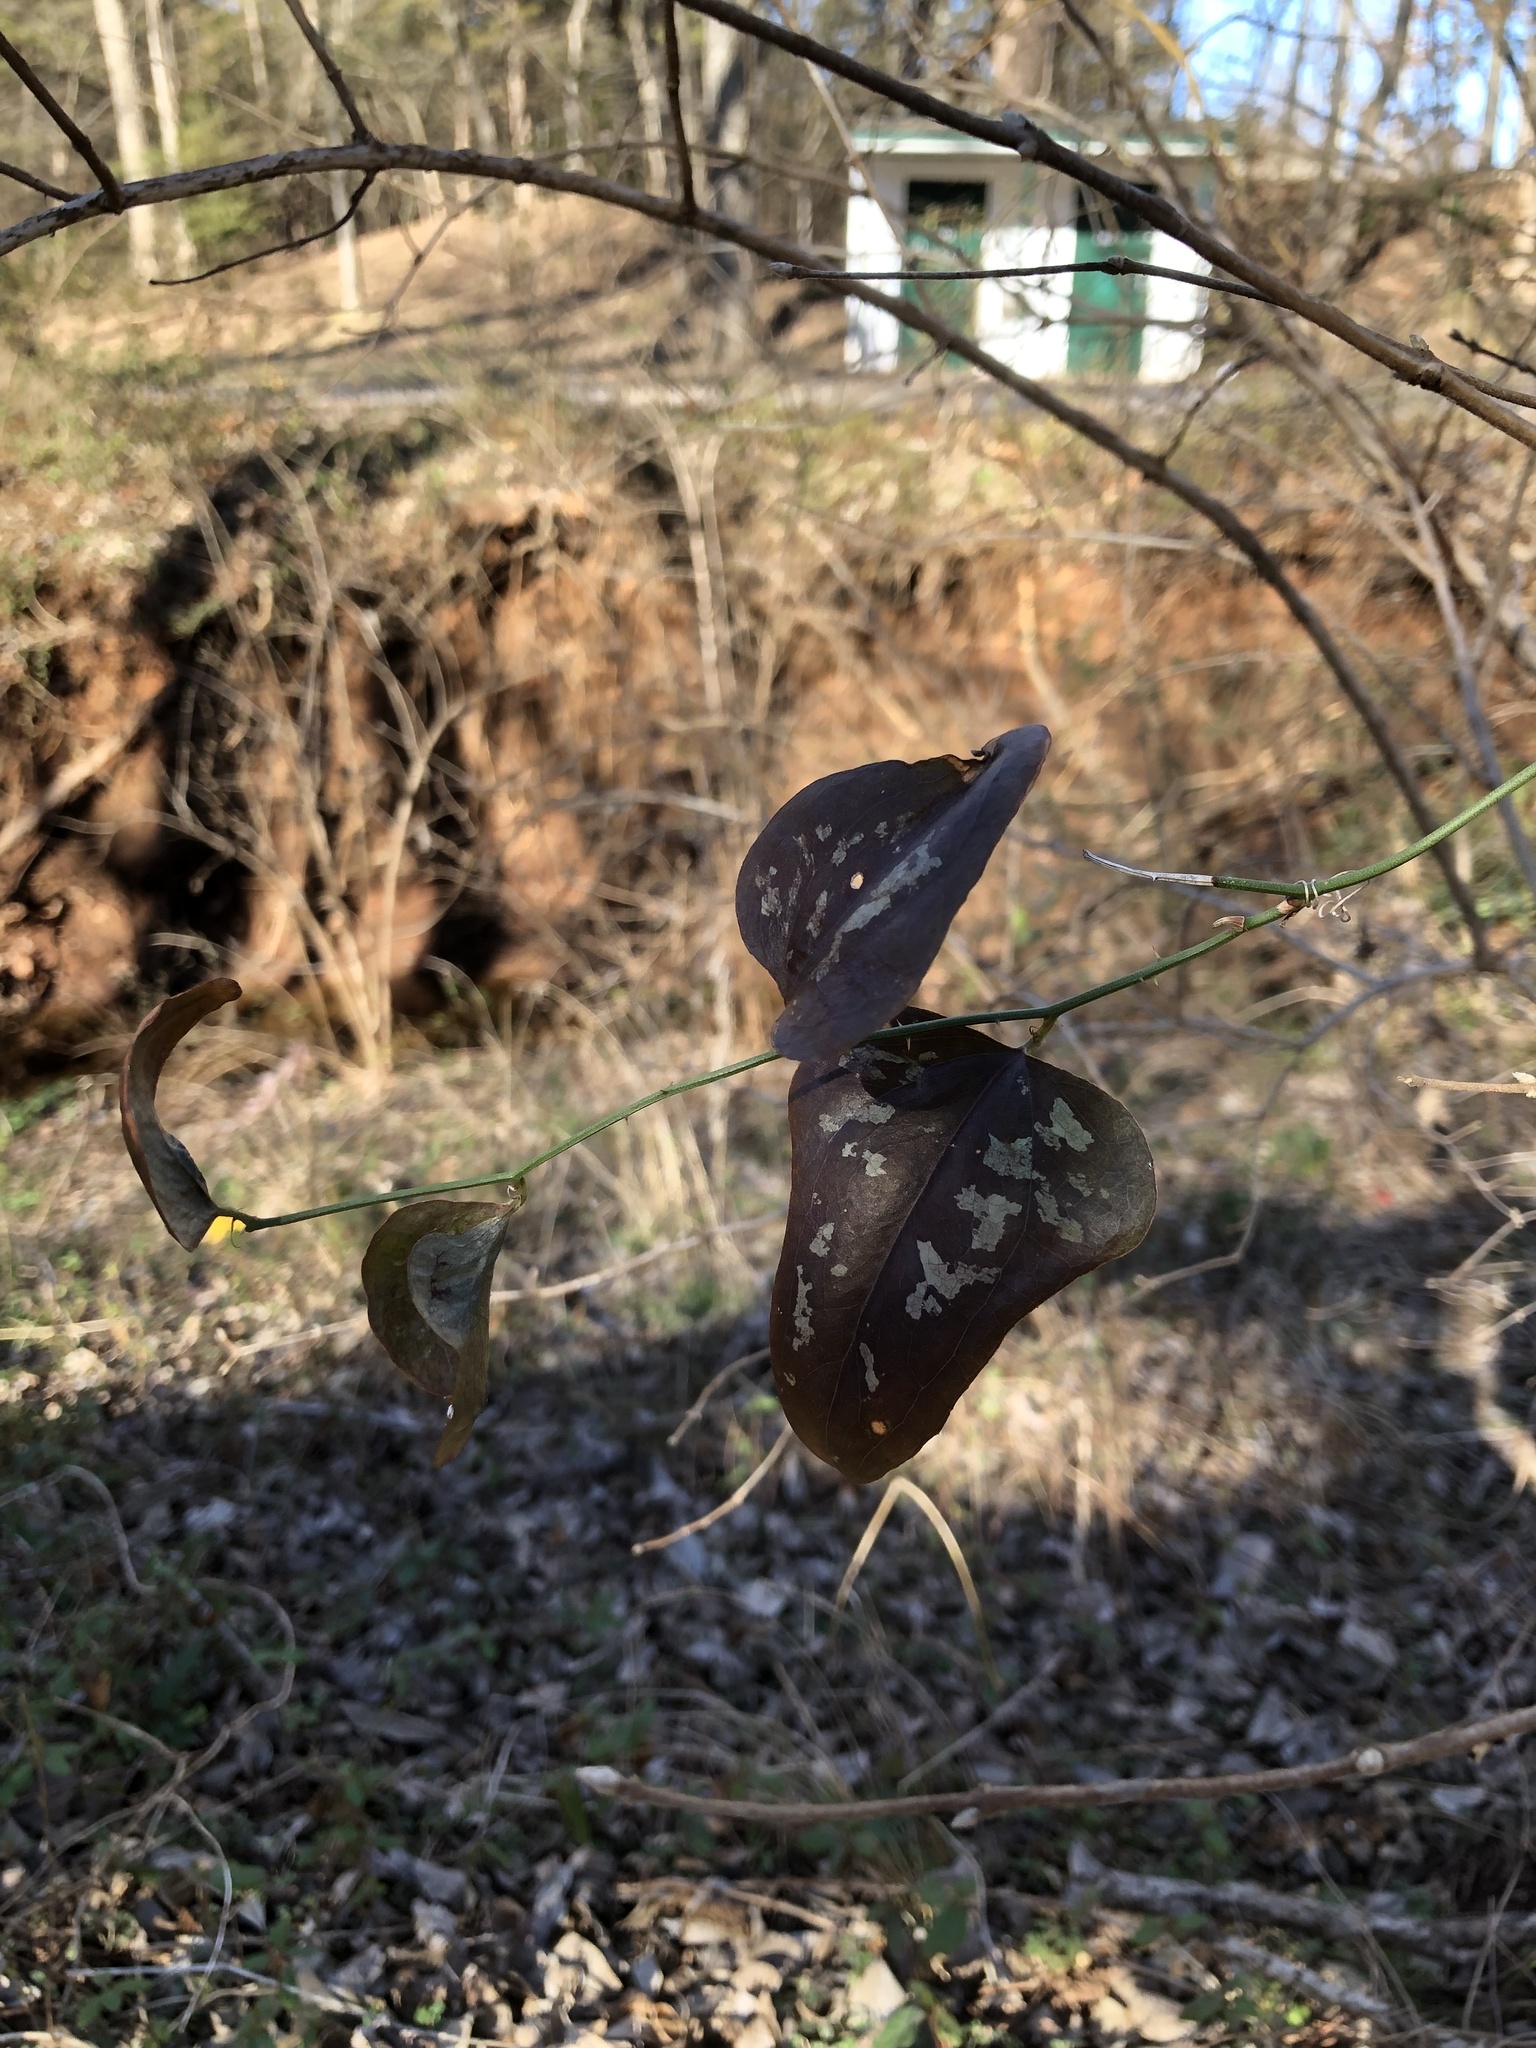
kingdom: Plantae
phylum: Tracheophyta
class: Liliopsida
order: Liliales
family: Smilacaceae
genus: Smilax
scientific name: Smilax bona-nox
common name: Catbrier
